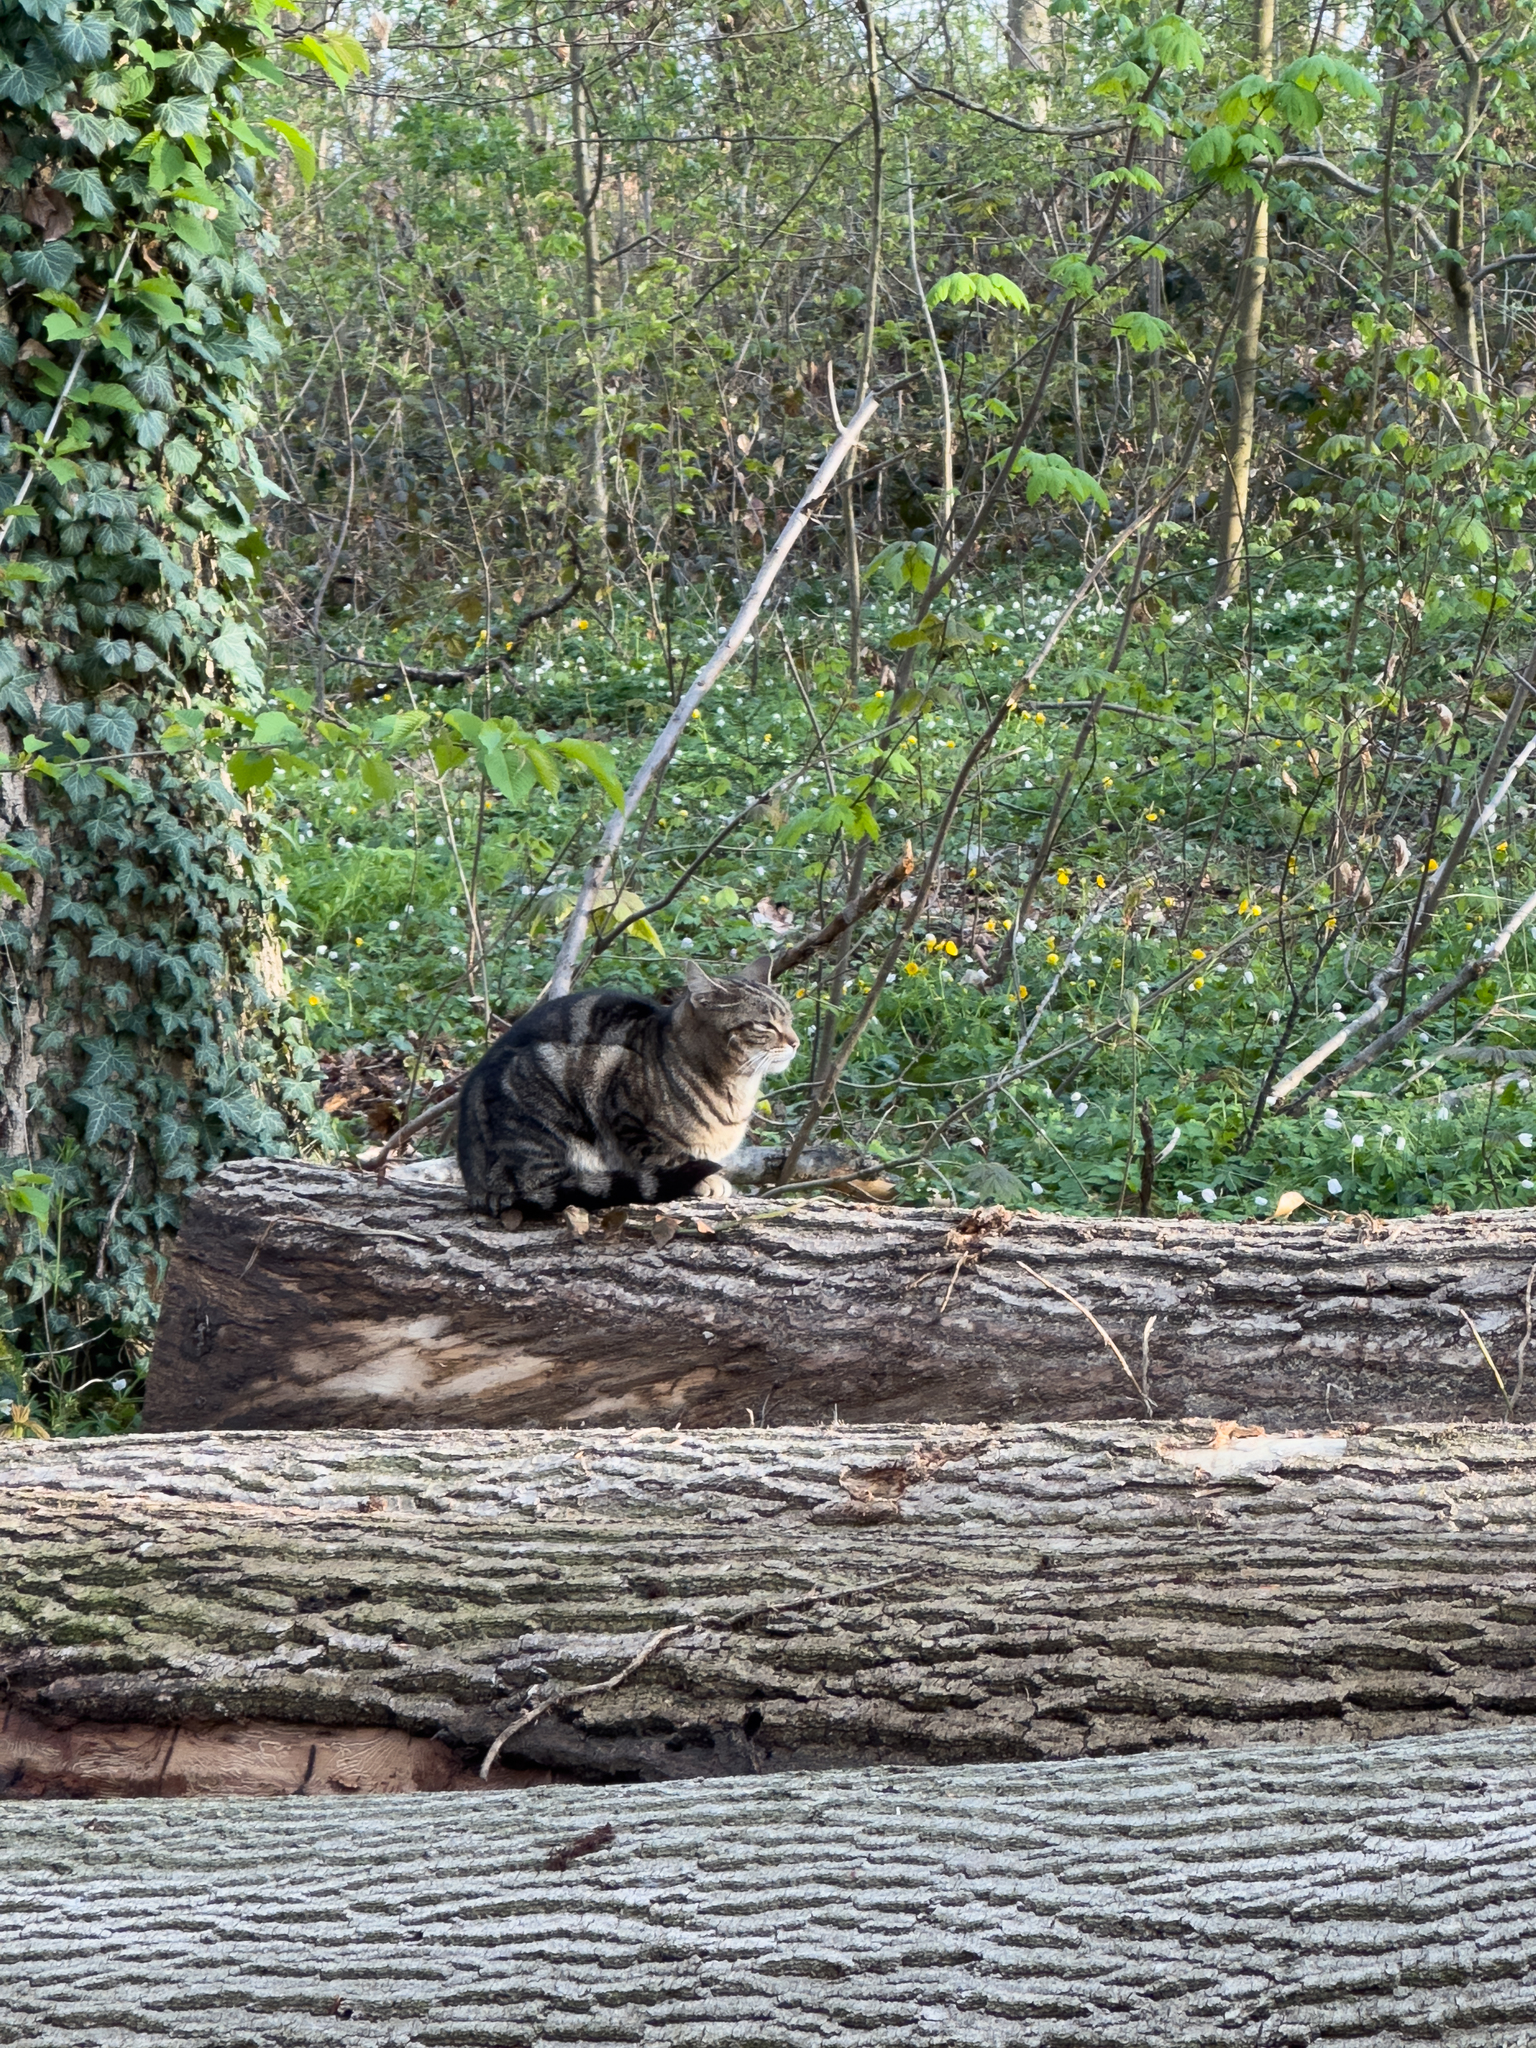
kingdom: Animalia
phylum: Chordata
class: Mammalia
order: Carnivora
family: Felidae
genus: Felis
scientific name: Felis catus
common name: Domestic cat
